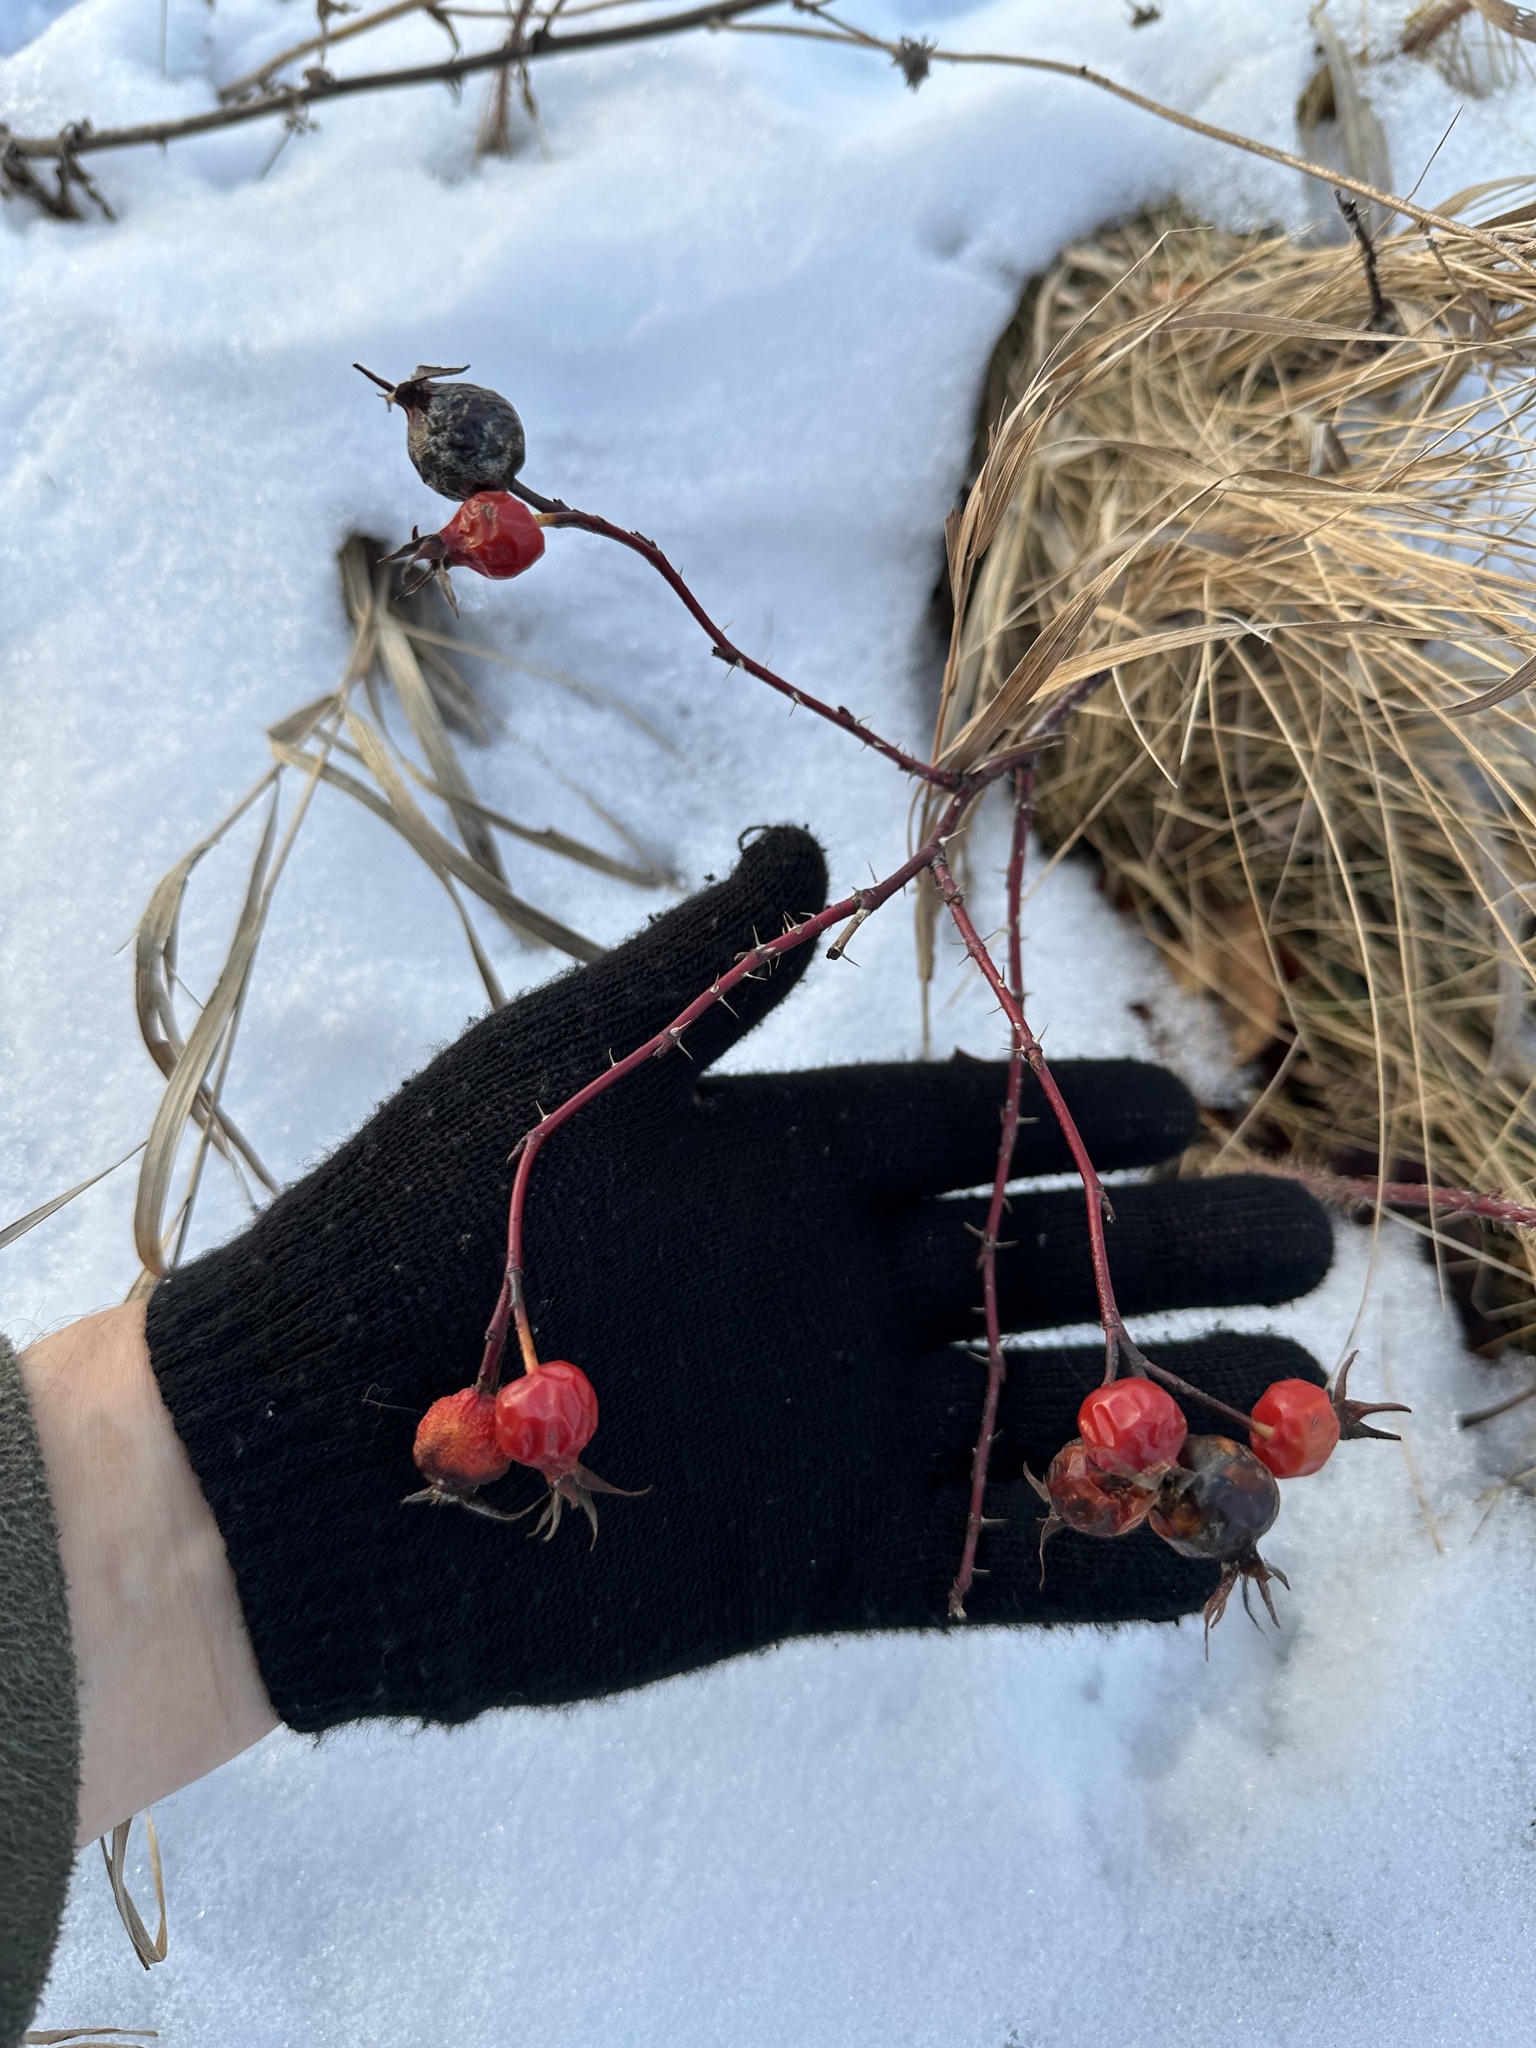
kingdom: Plantae
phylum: Tracheophyta
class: Magnoliopsida
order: Rosales
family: Rosaceae
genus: Rosa
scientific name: Rosa woodsii
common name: Woods's rose
